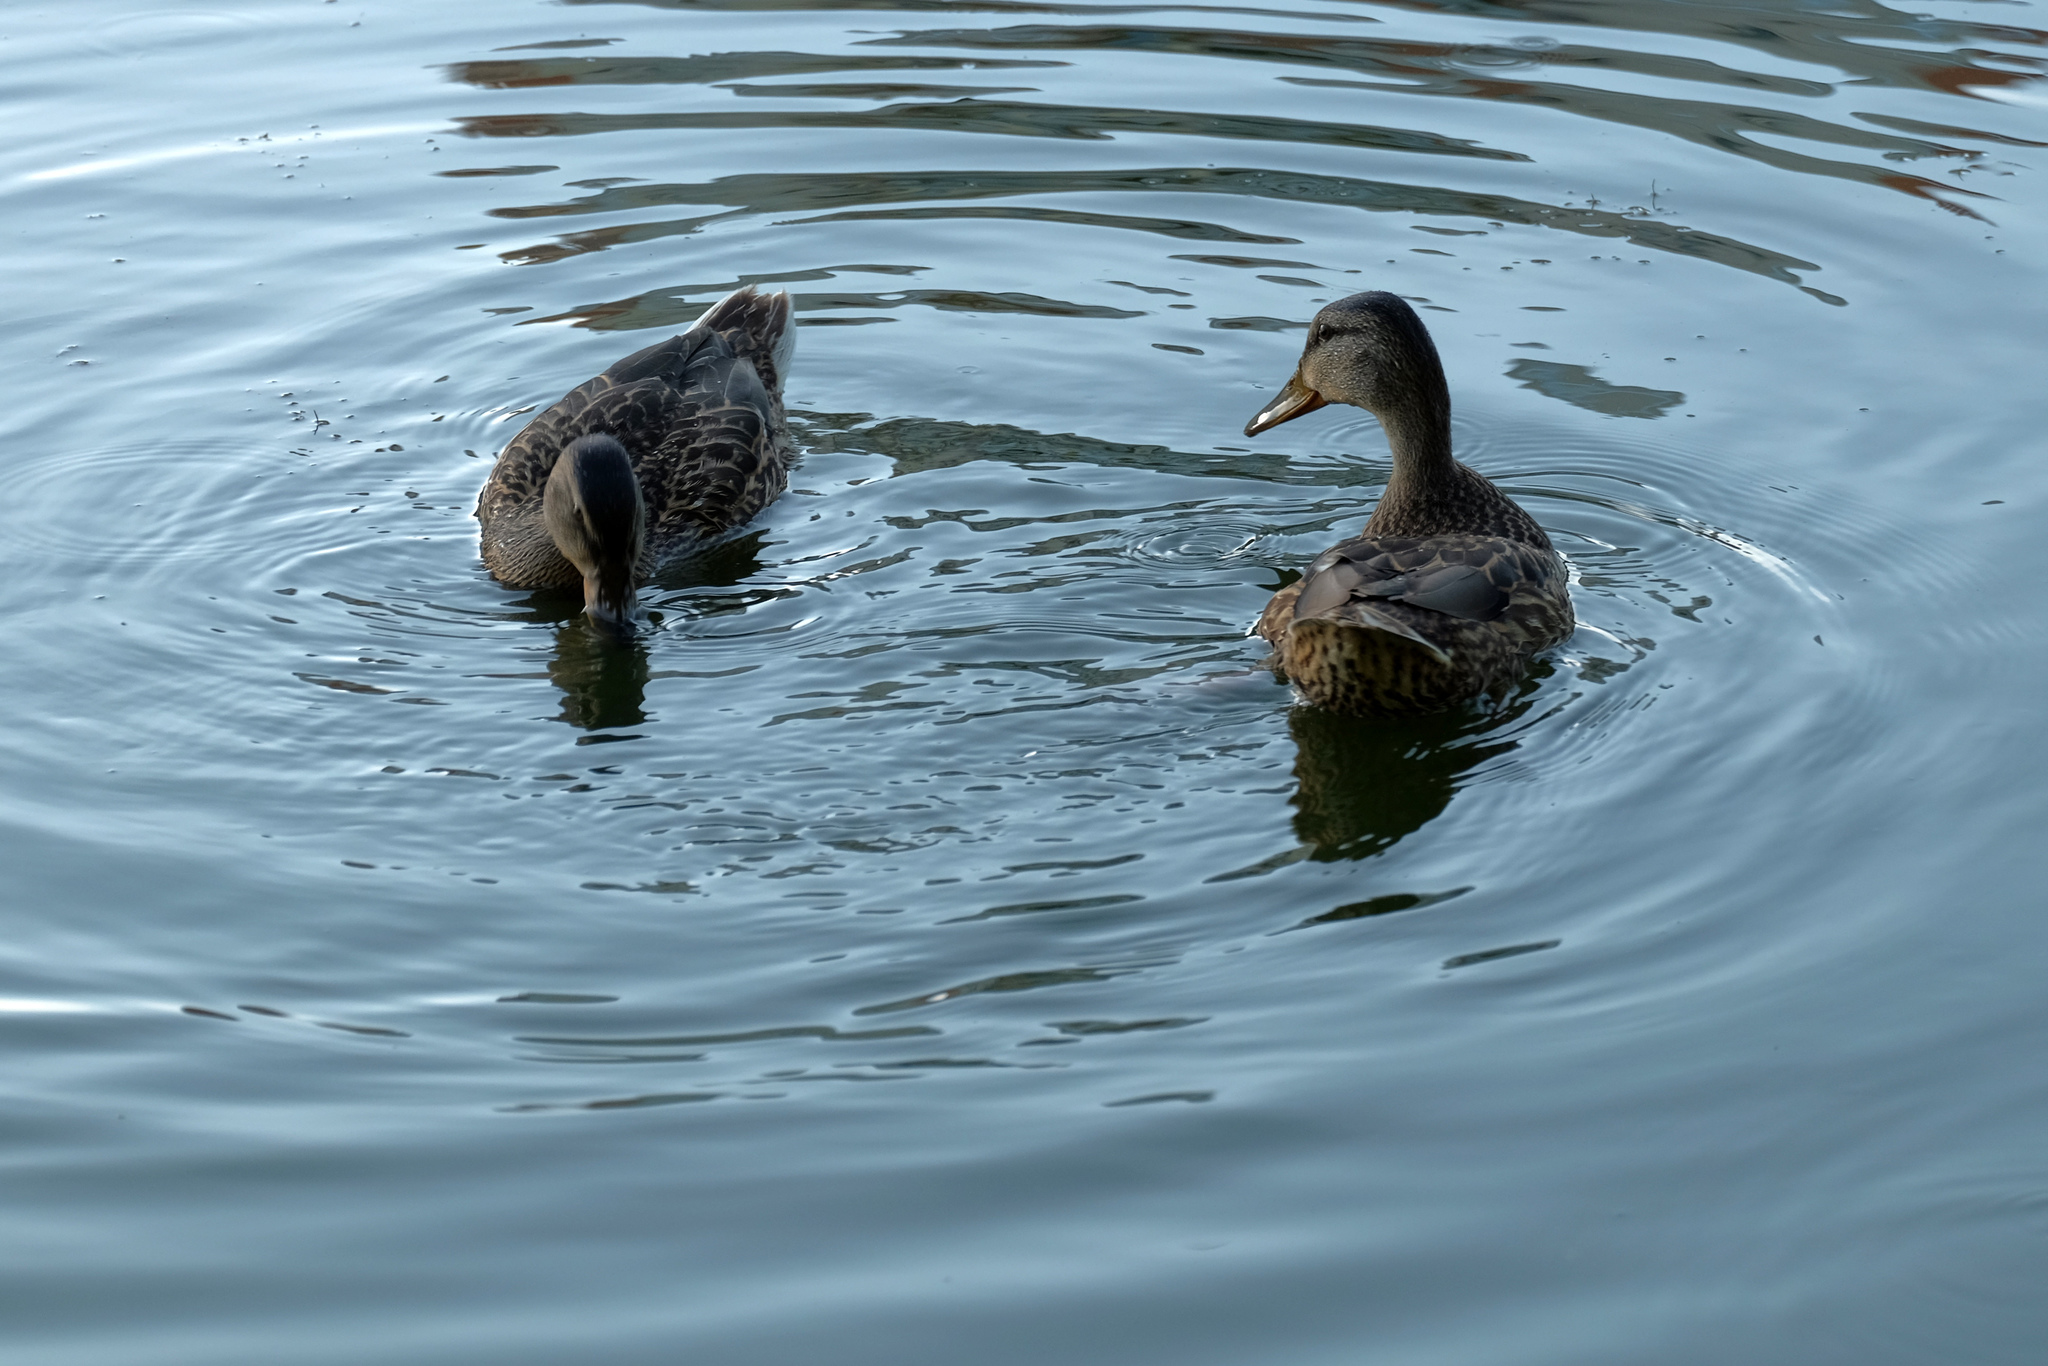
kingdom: Animalia
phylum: Chordata
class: Aves
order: Anseriformes
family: Anatidae
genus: Anas
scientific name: Anas platyrhynchos
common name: Mallard
